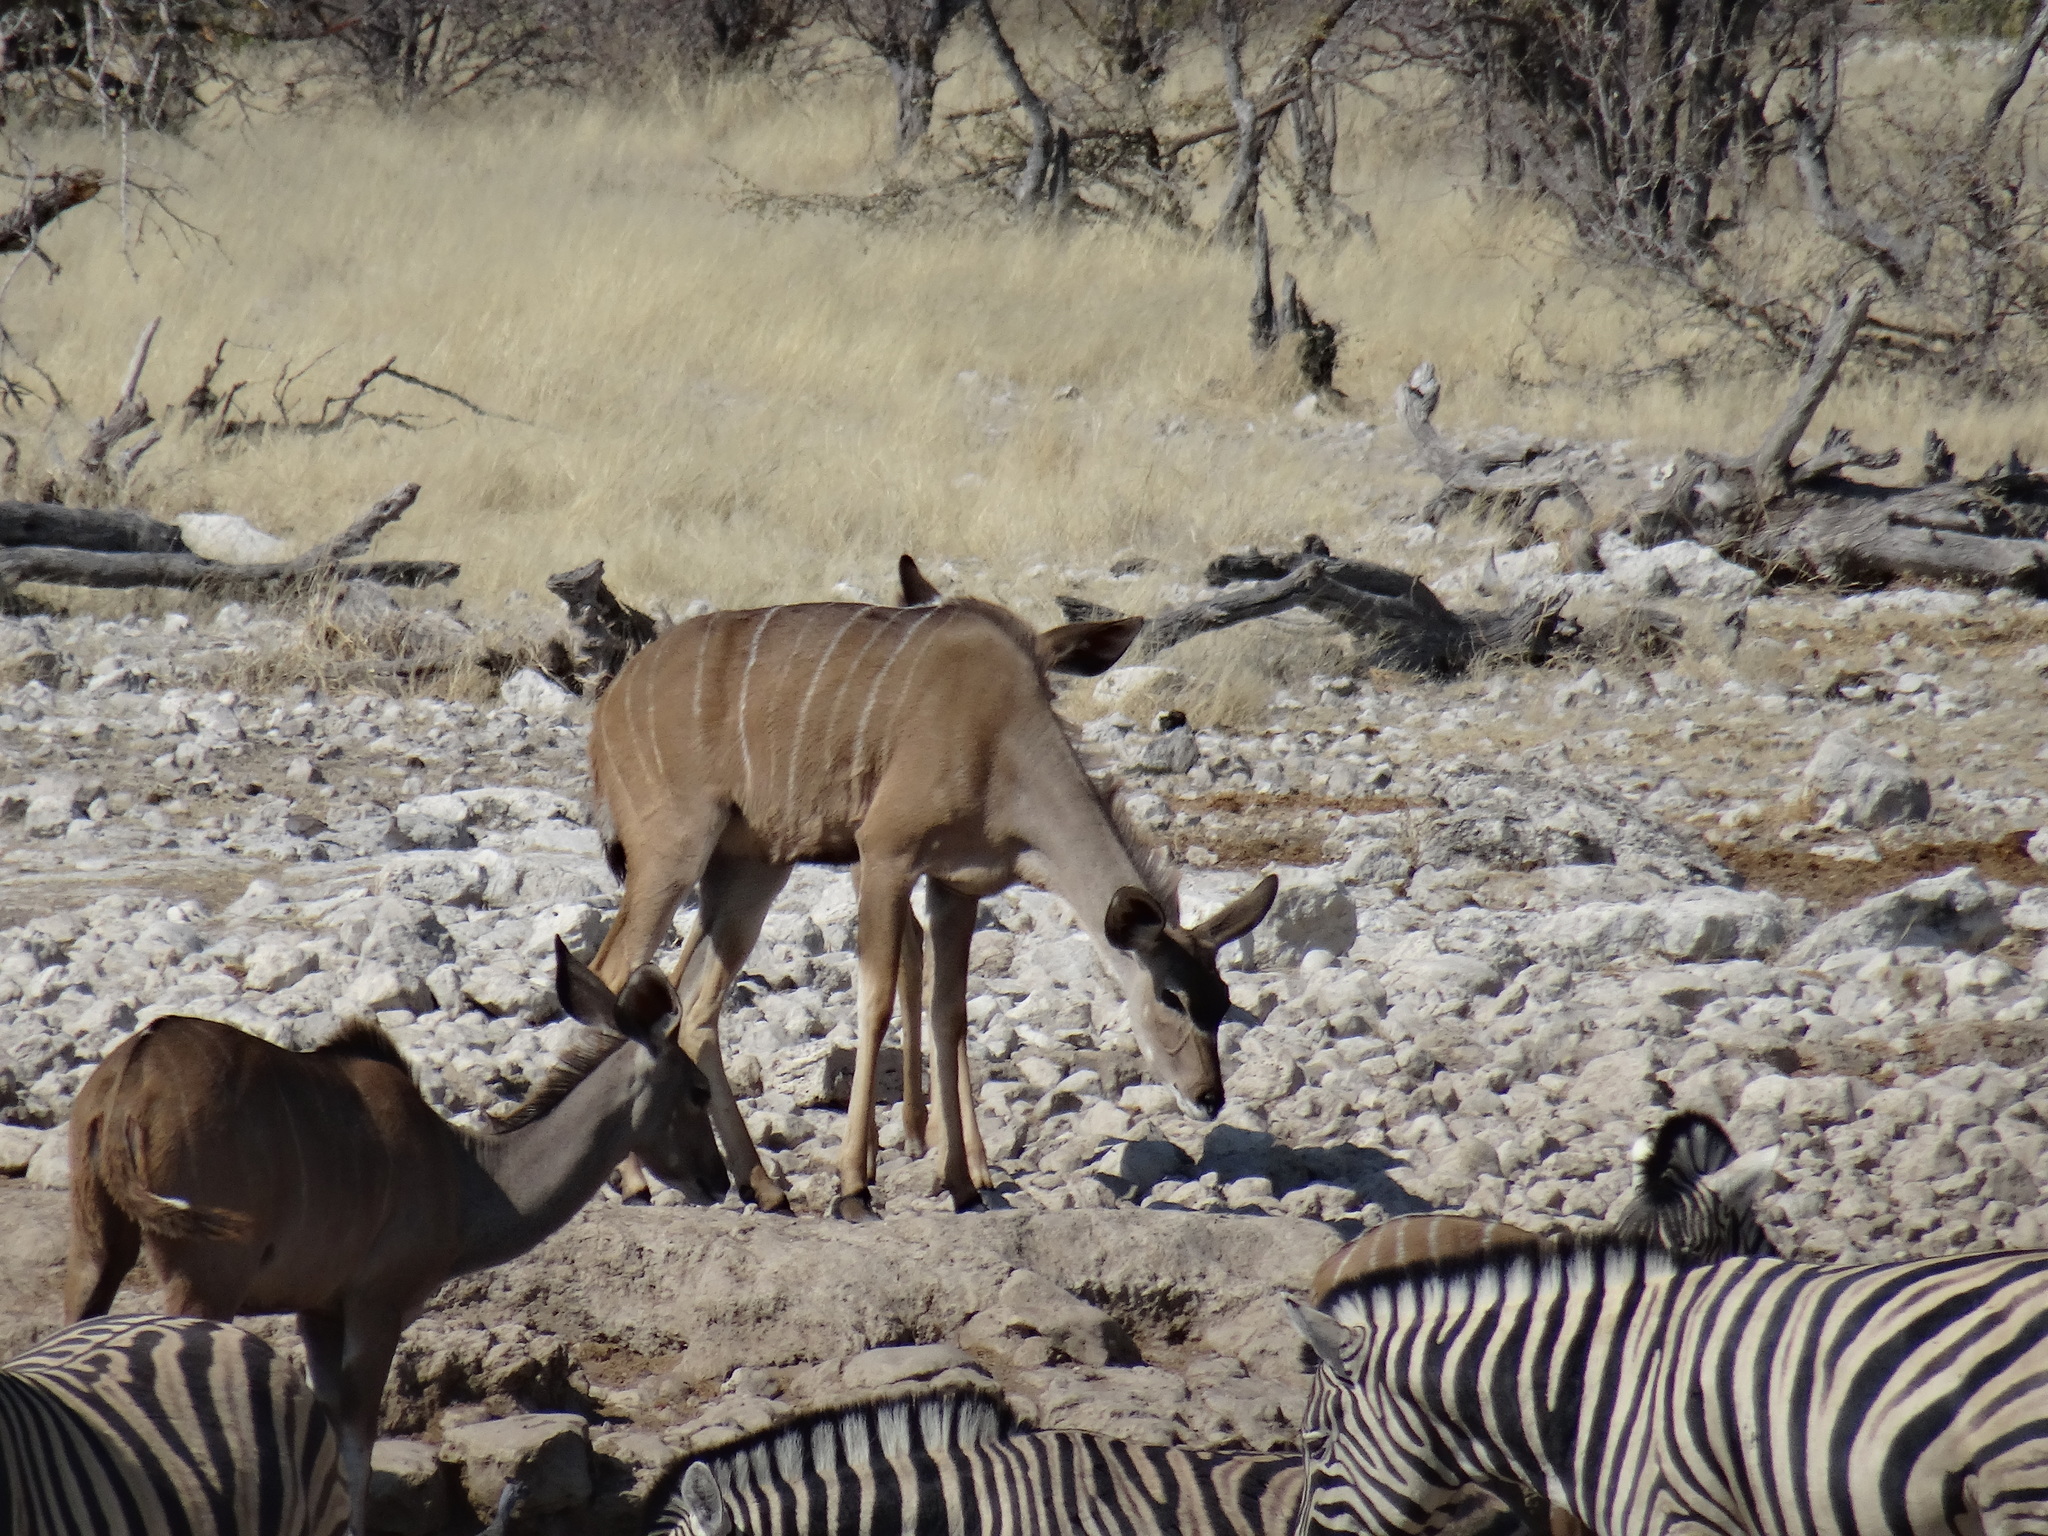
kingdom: Animalia
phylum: Chordata
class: Mammalia
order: Artiodactyla
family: Bovidae
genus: Tragelaphus
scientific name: Tragelaphus strepsiceros
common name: Greater kudu
